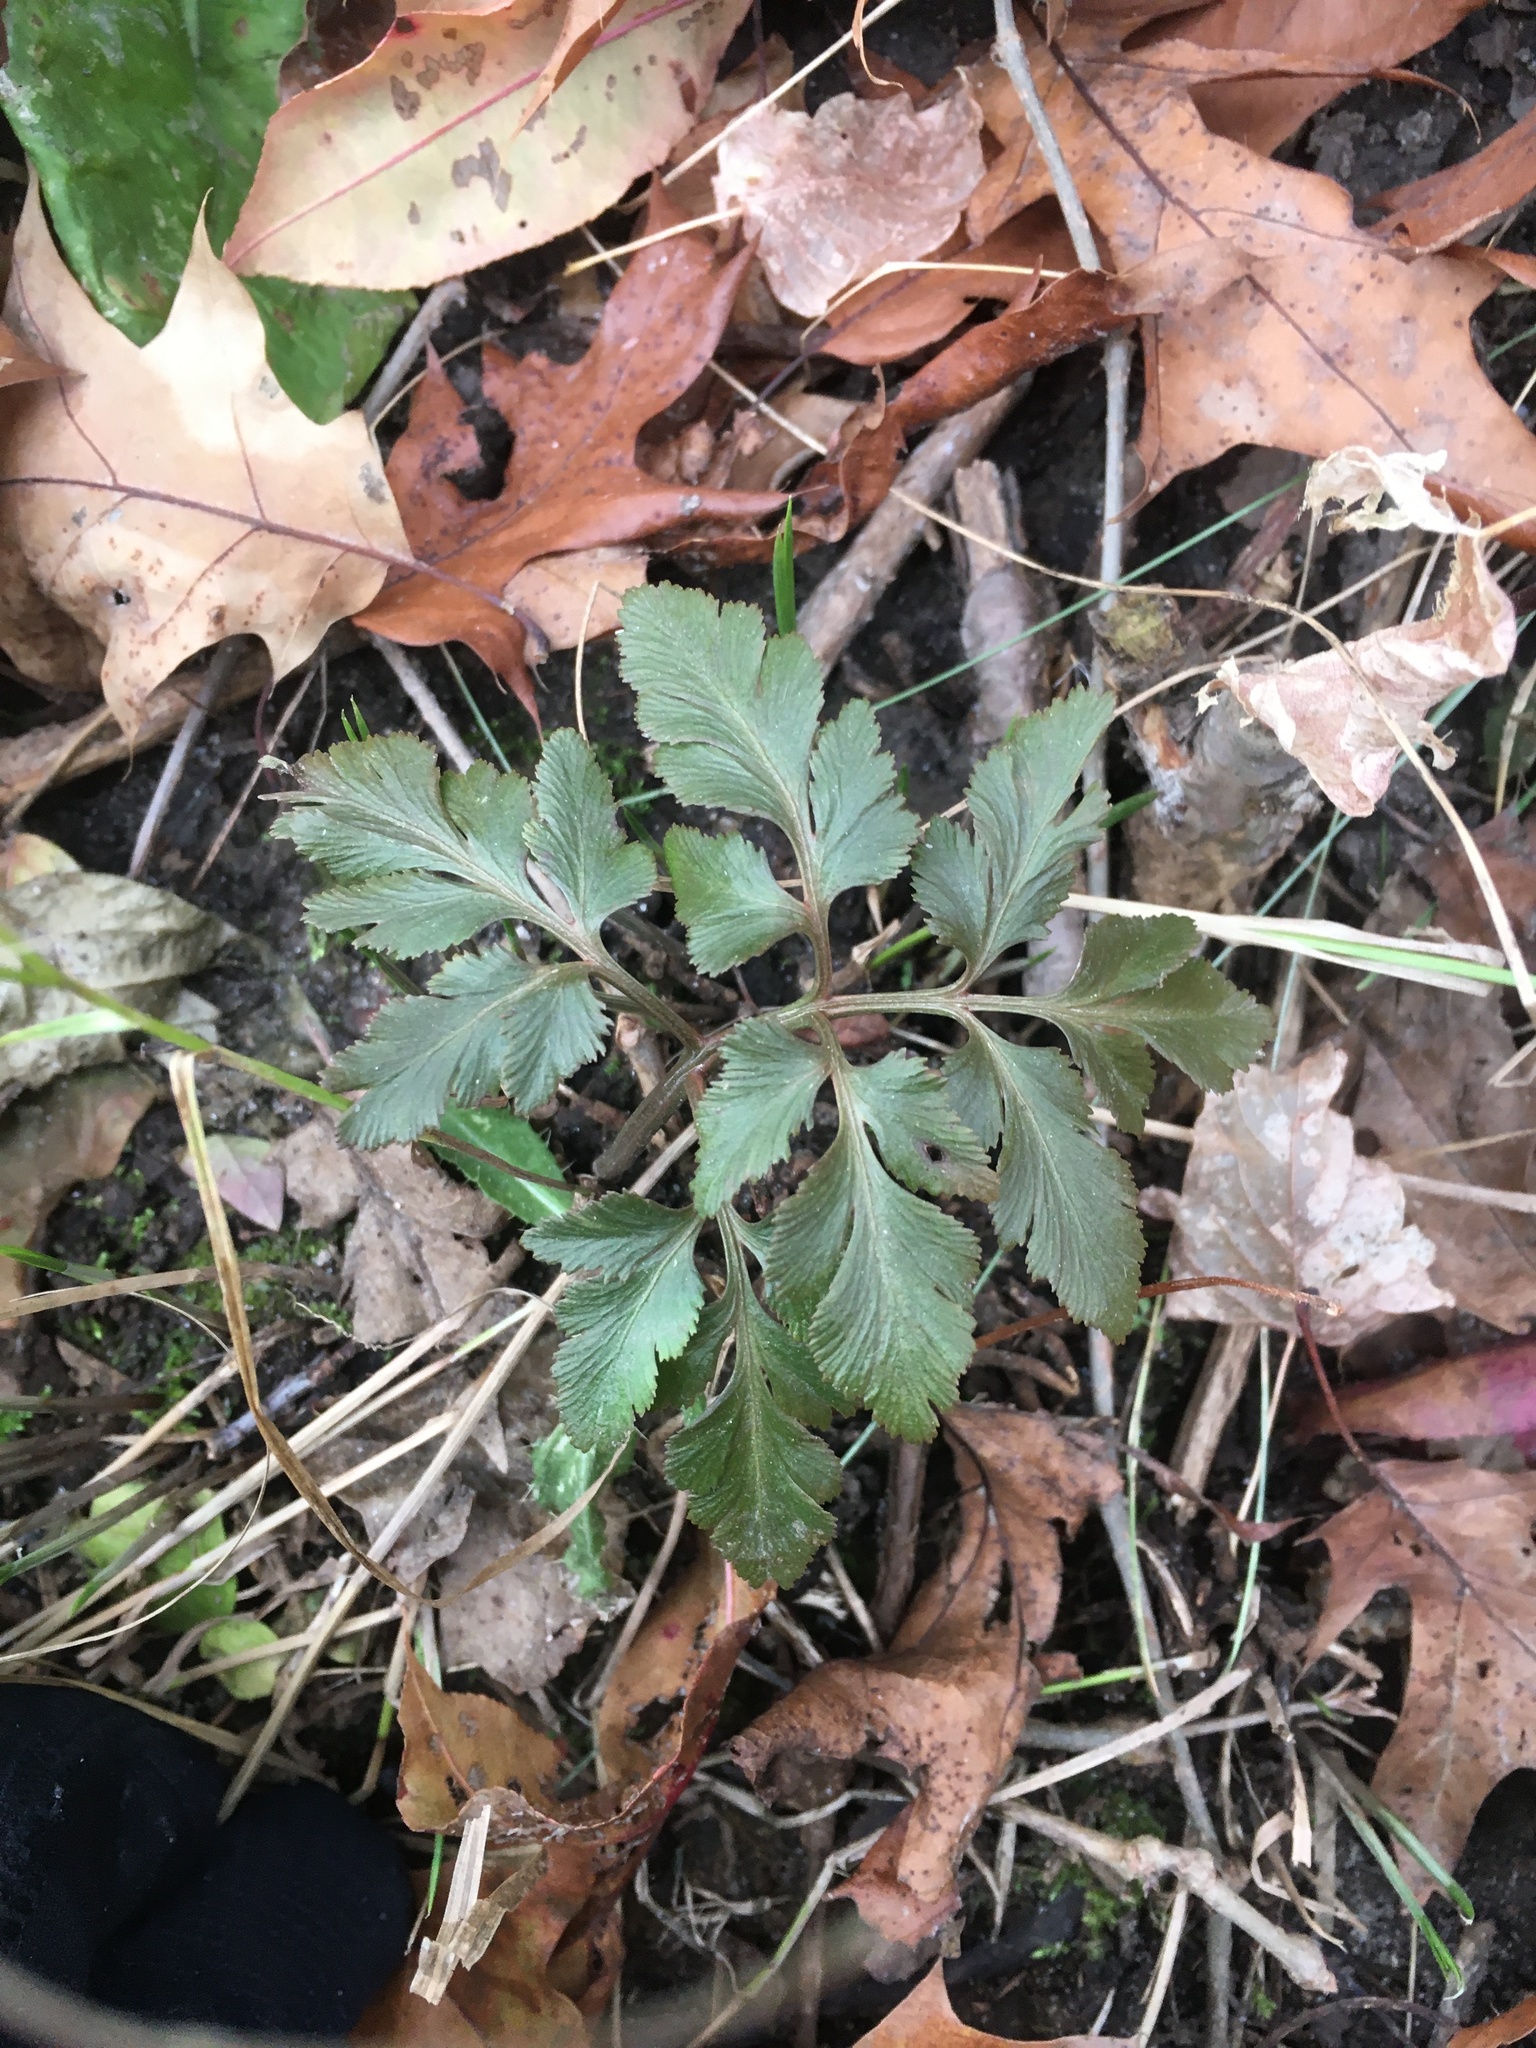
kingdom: Plantae
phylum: Tracheophyta
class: Polypodiopsida
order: Ophioglossales
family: Ophioglossaceae
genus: Sceptridium
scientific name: Sceptridium dissectum
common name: Cut-leaved grapefern
